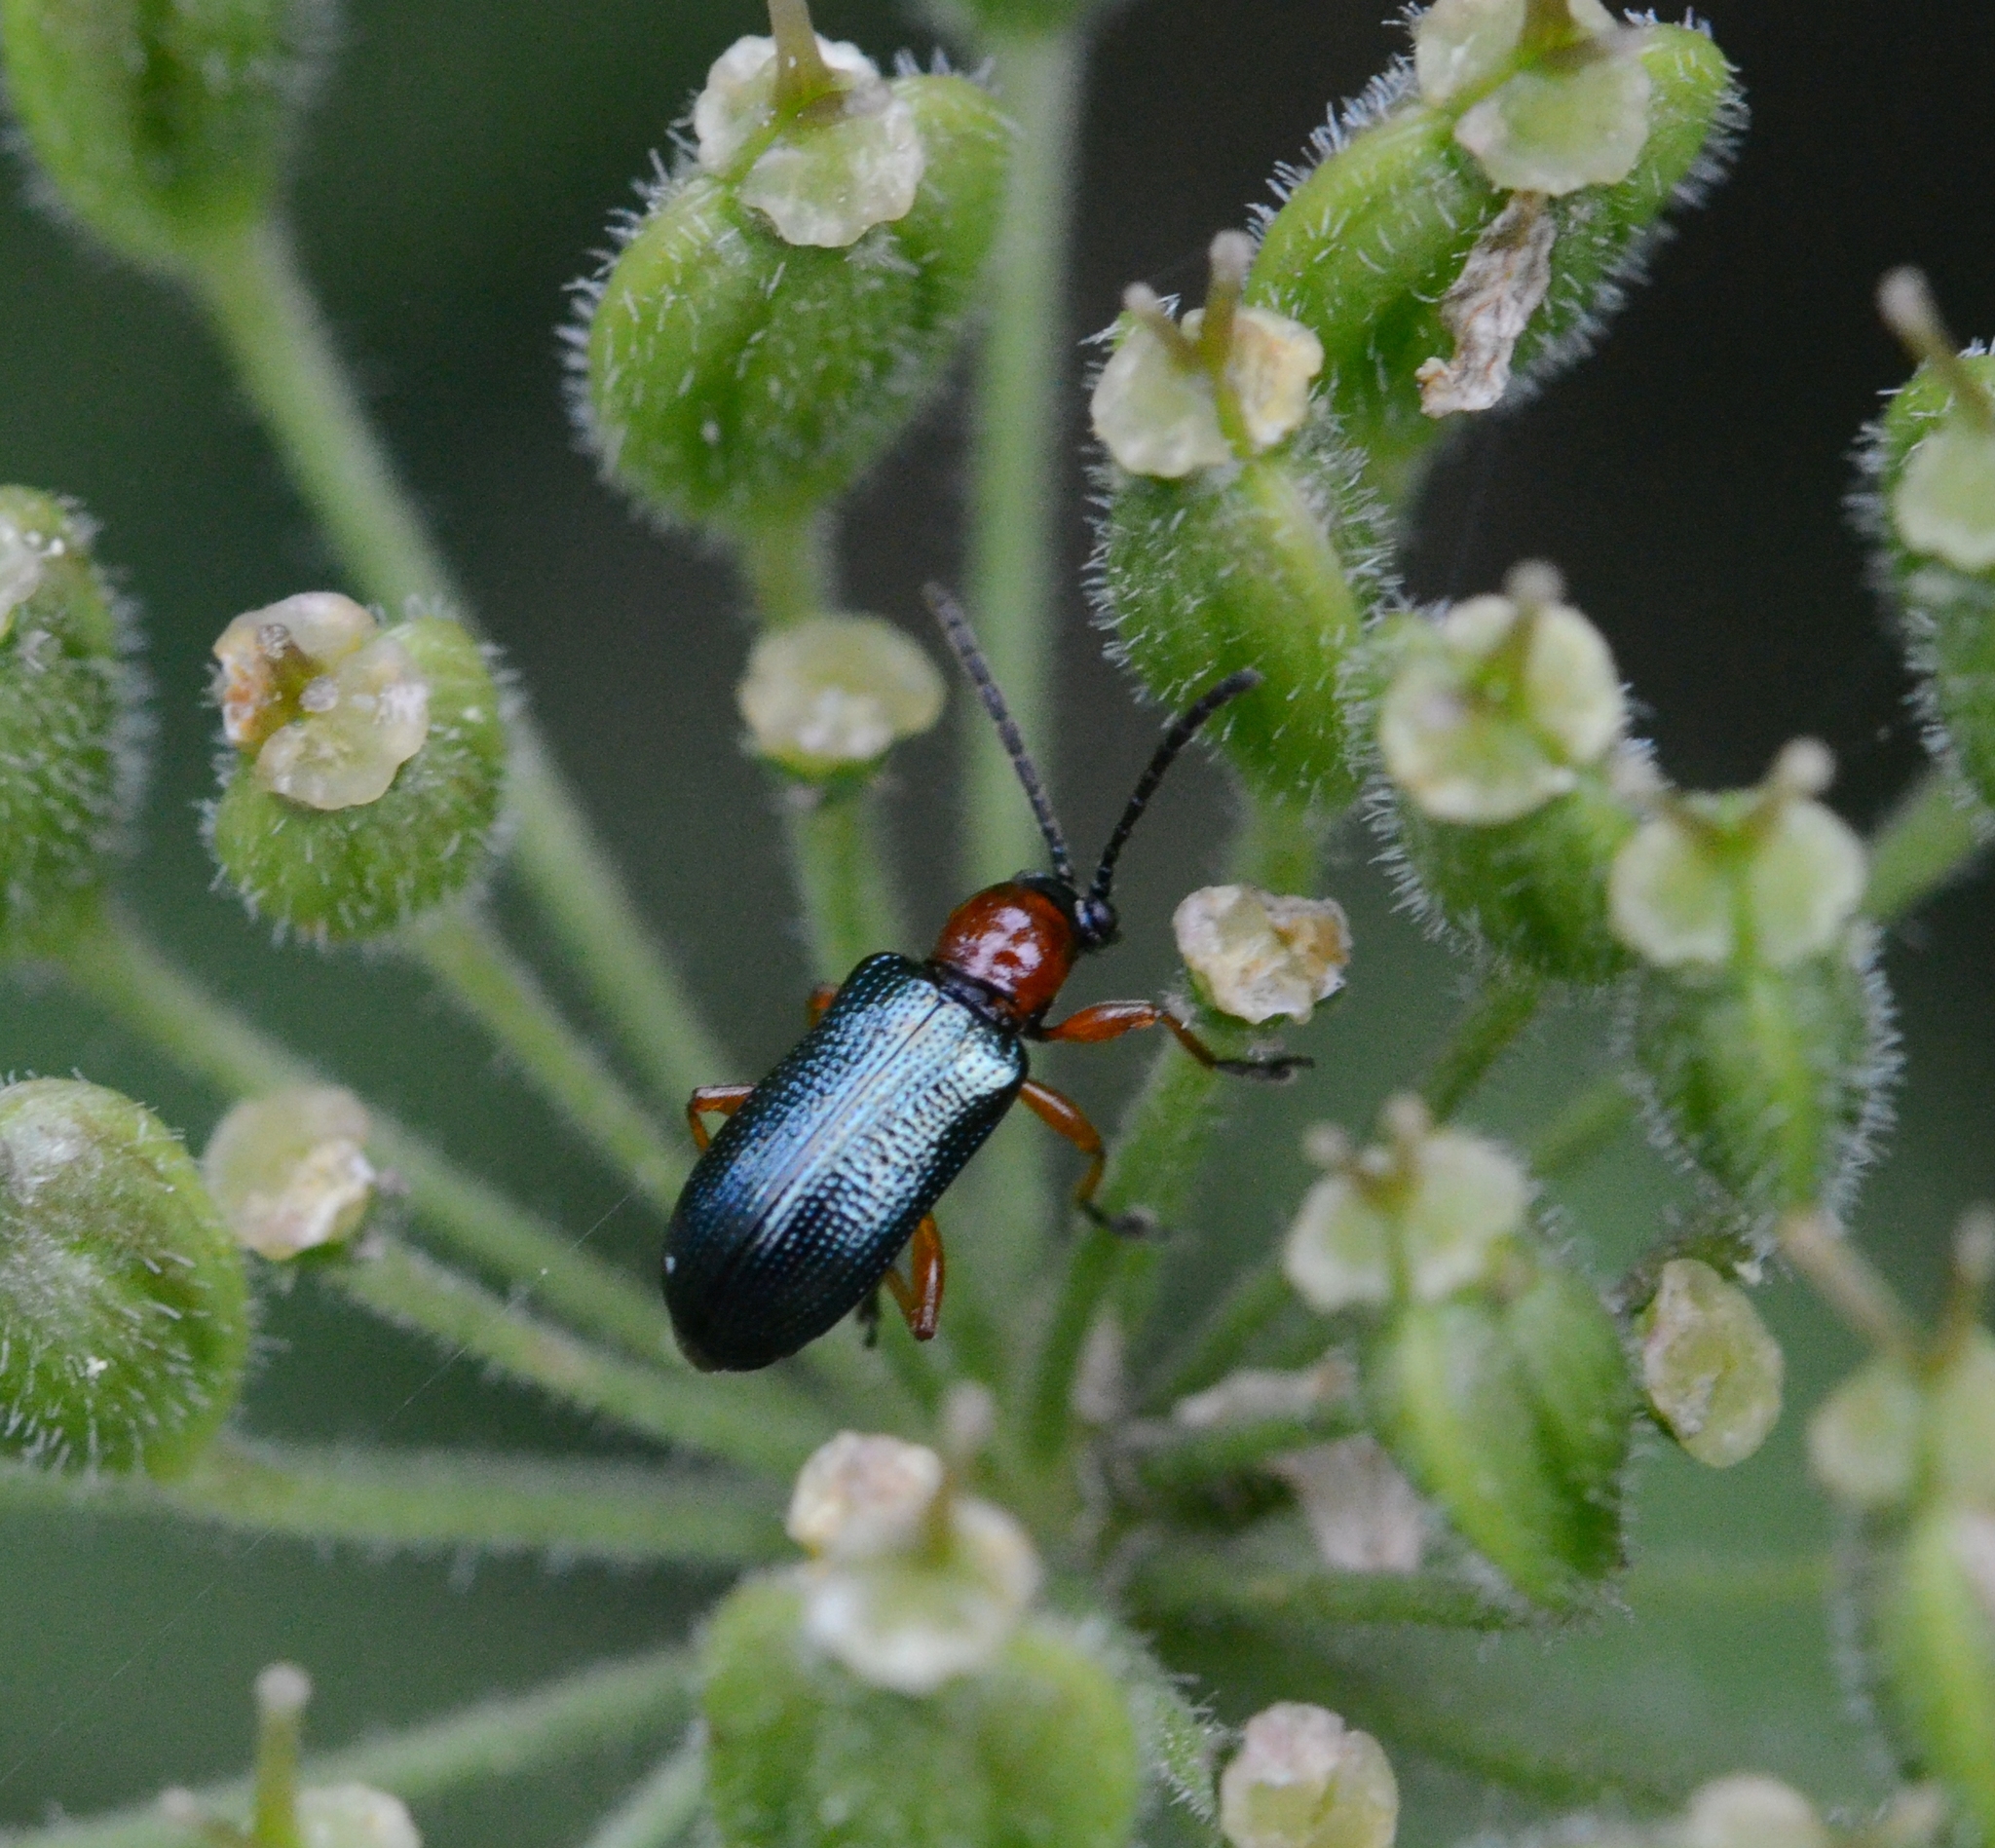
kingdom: Animalia
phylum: Arthropoda
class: Insecta
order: Coleoptera
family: Chrysomelidae
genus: Oulema
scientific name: Oulema
